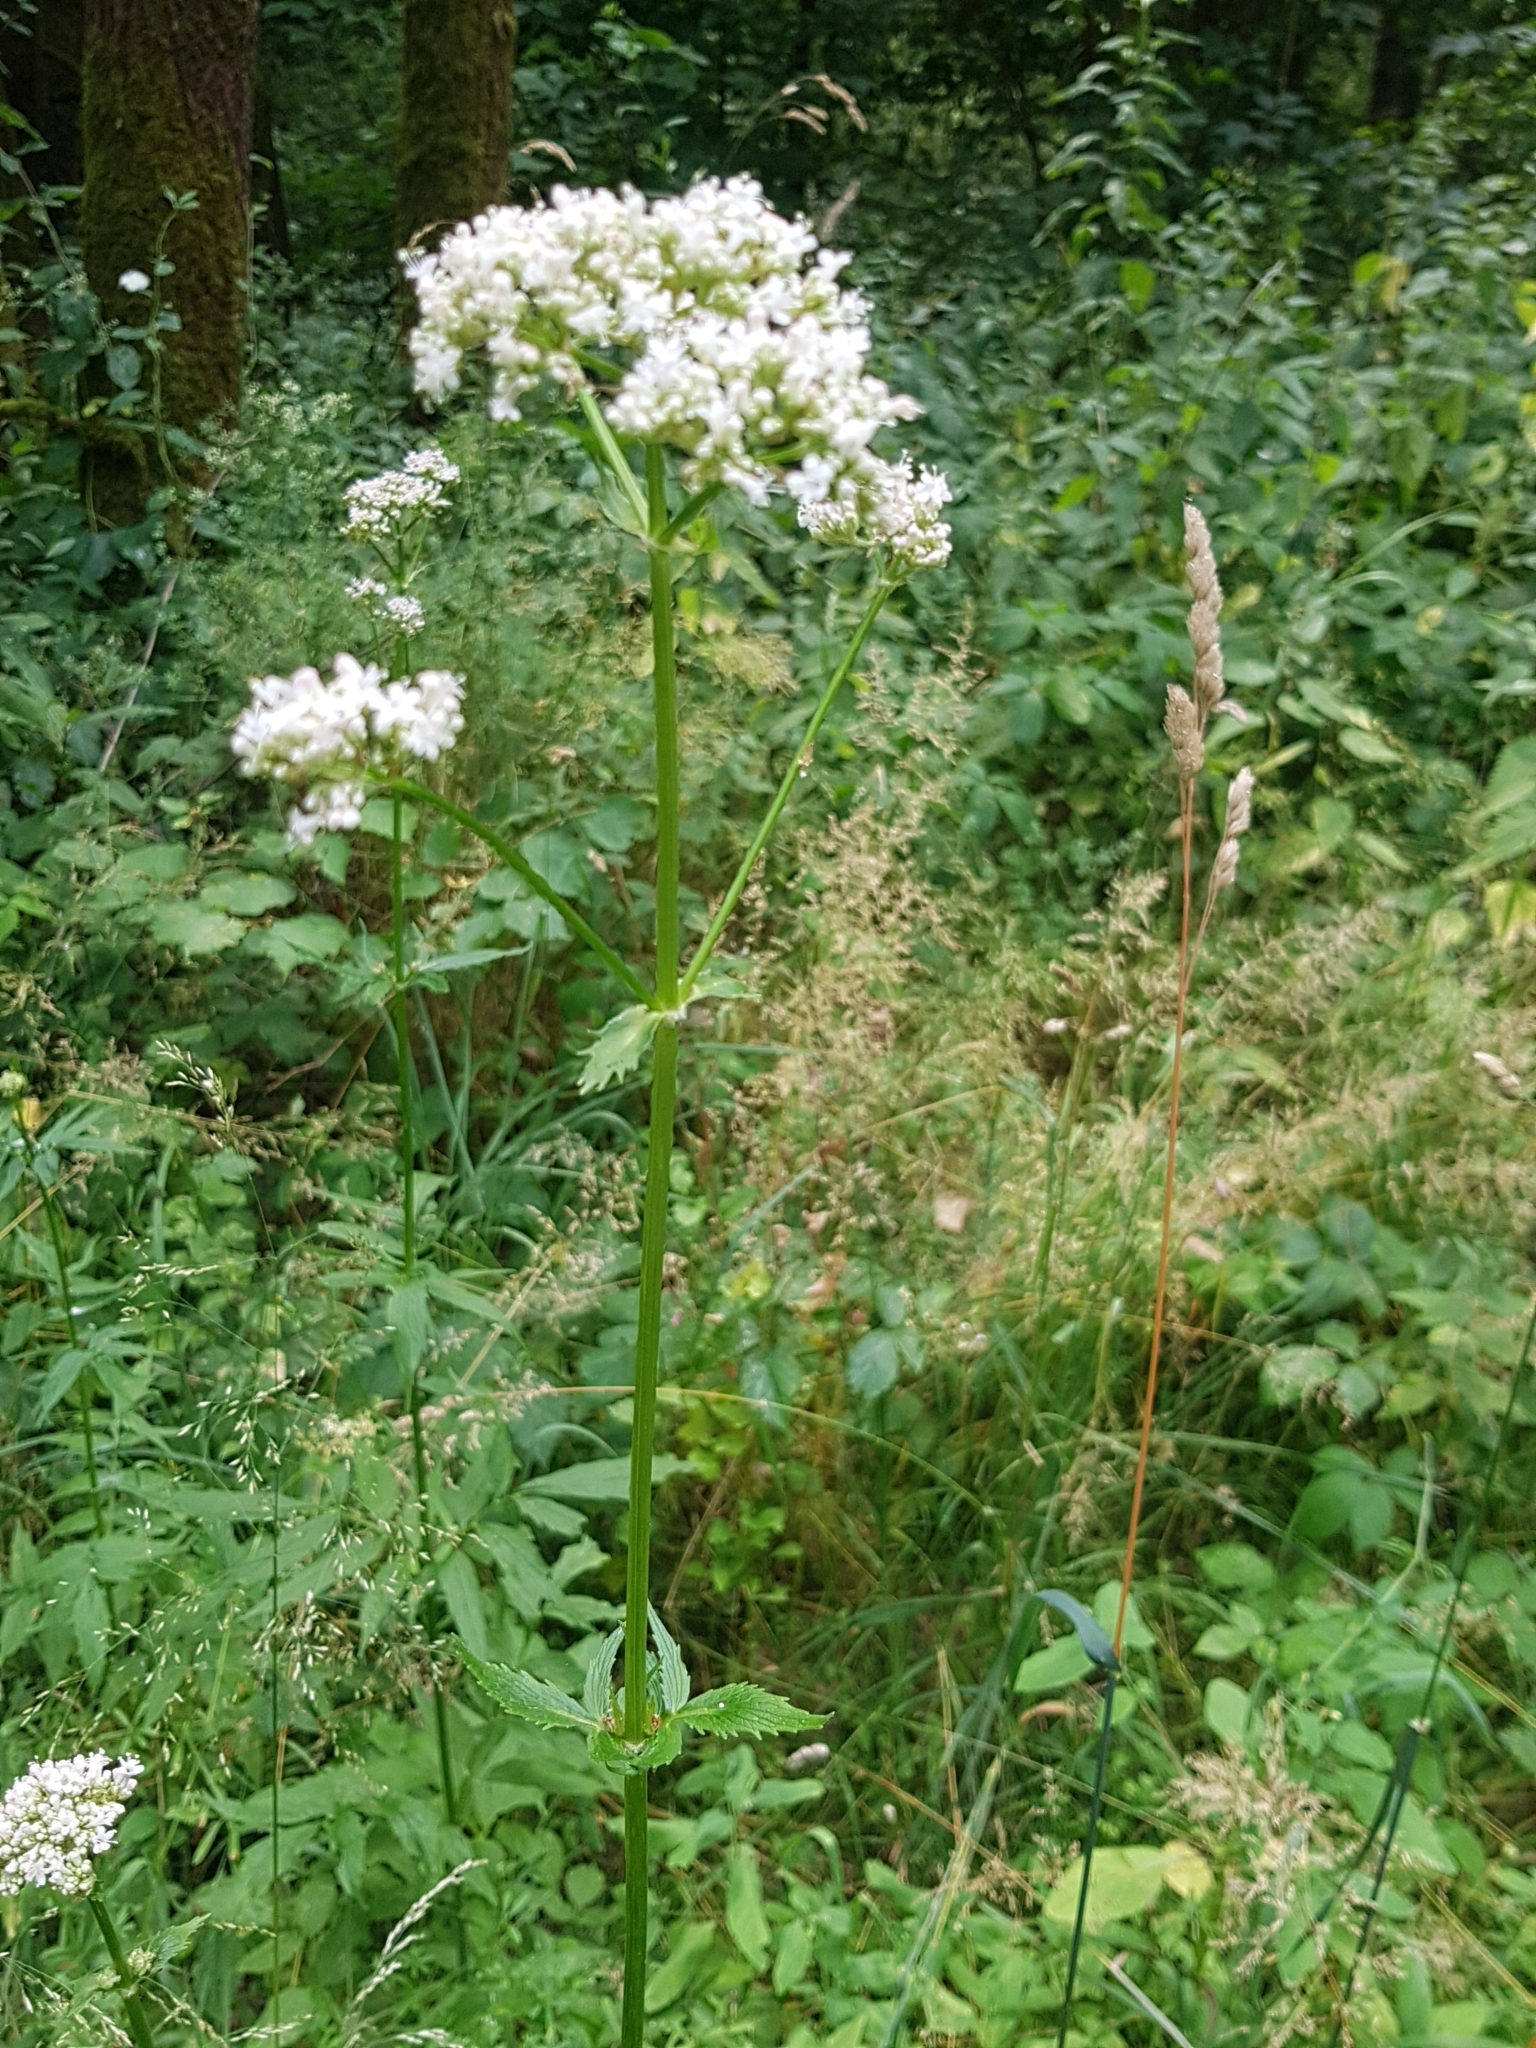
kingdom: Plantae
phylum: Tracheophyta
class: Magnoliopsida
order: Dipsacales
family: Caprifoliaceae
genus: Valeriana
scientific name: Valeriana officinalis
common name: Common valerian
